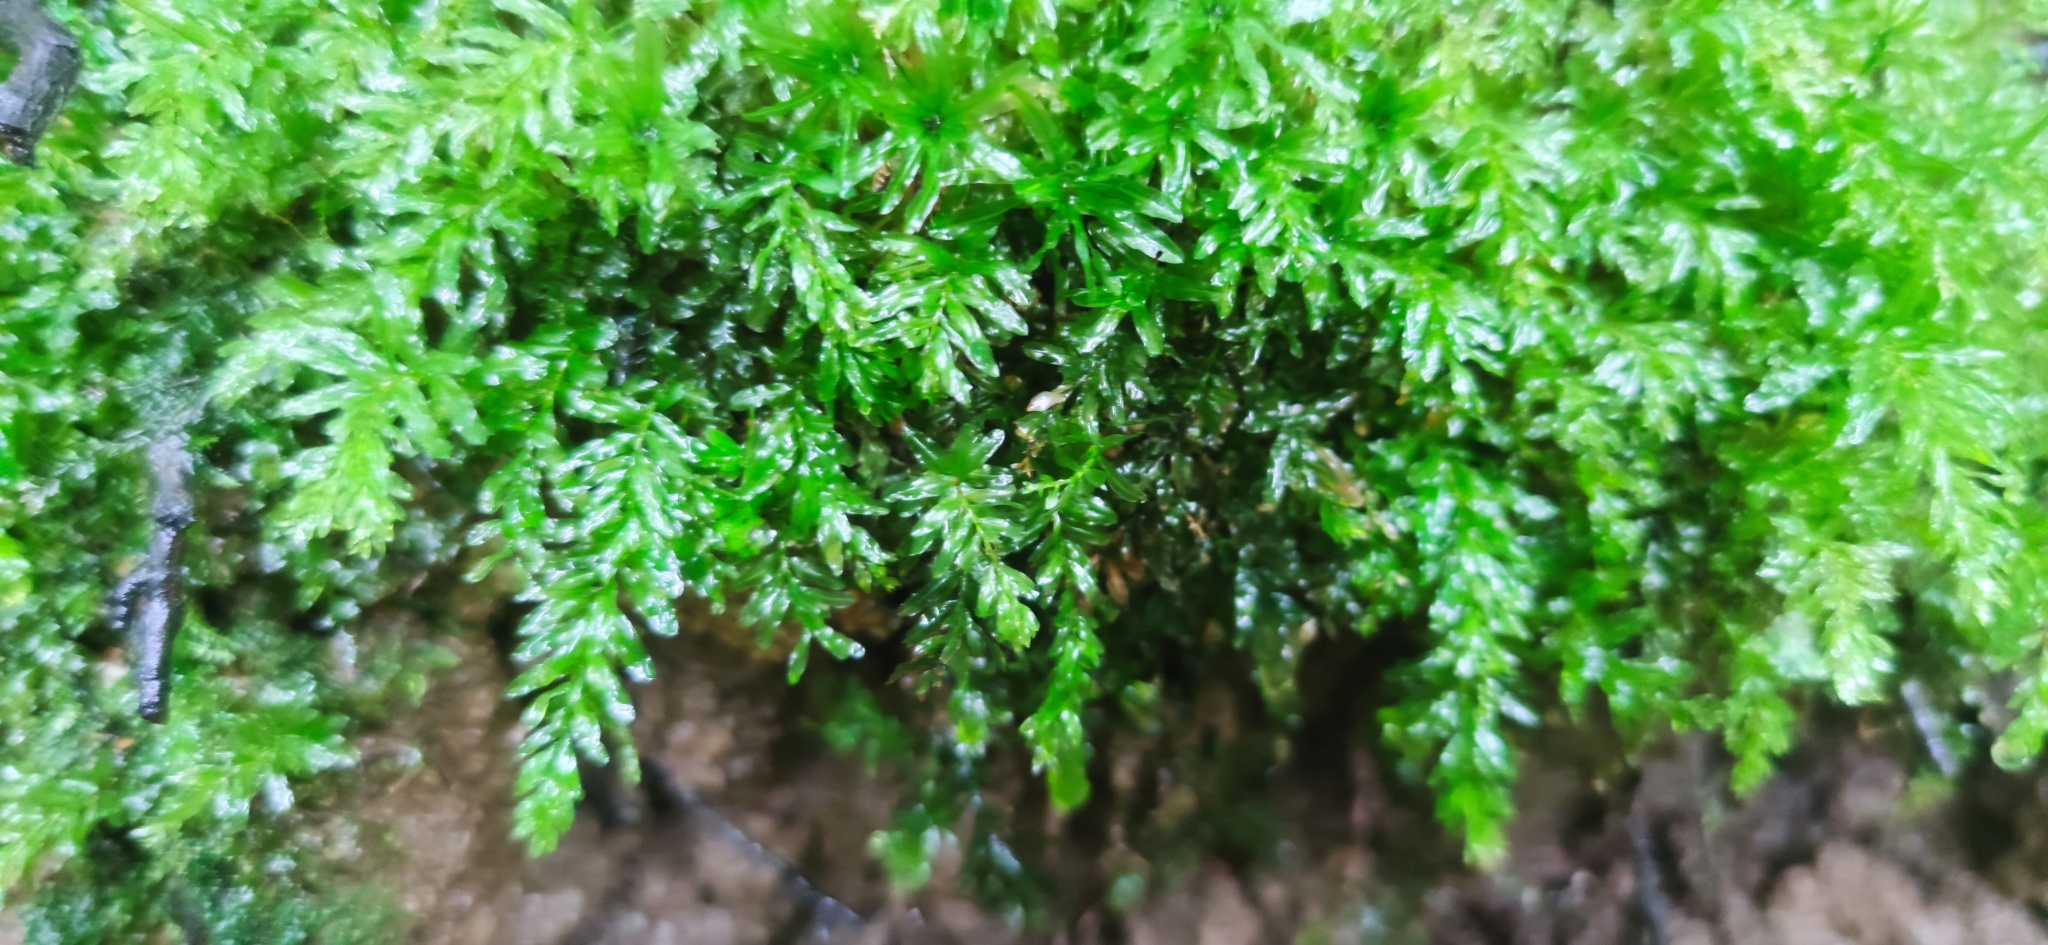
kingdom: Plantae
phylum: Bryophyta
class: Bryopsida
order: Bryales
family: Mniaceae
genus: Plagiomnium
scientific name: Plagiomnium undulatum
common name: Hart's-tongue thyme-moss
